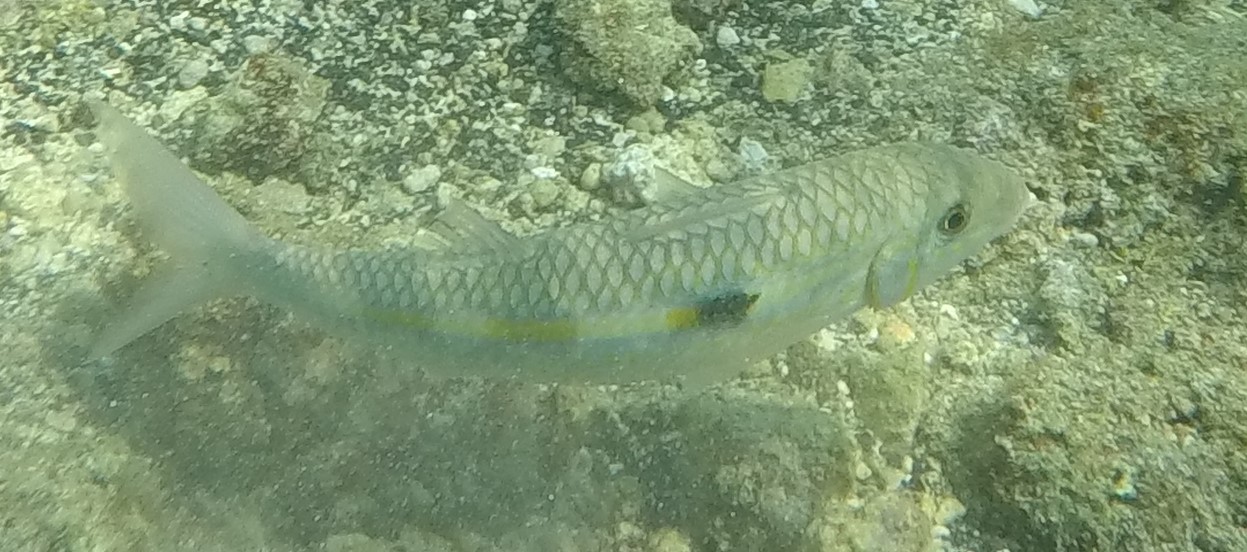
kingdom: Animalia
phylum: Chordata
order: Perciformes
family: Mullidae
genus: Mulloidichthys
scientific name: Mulloidichthys flavolineatus
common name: Yellowstripe goatfish
